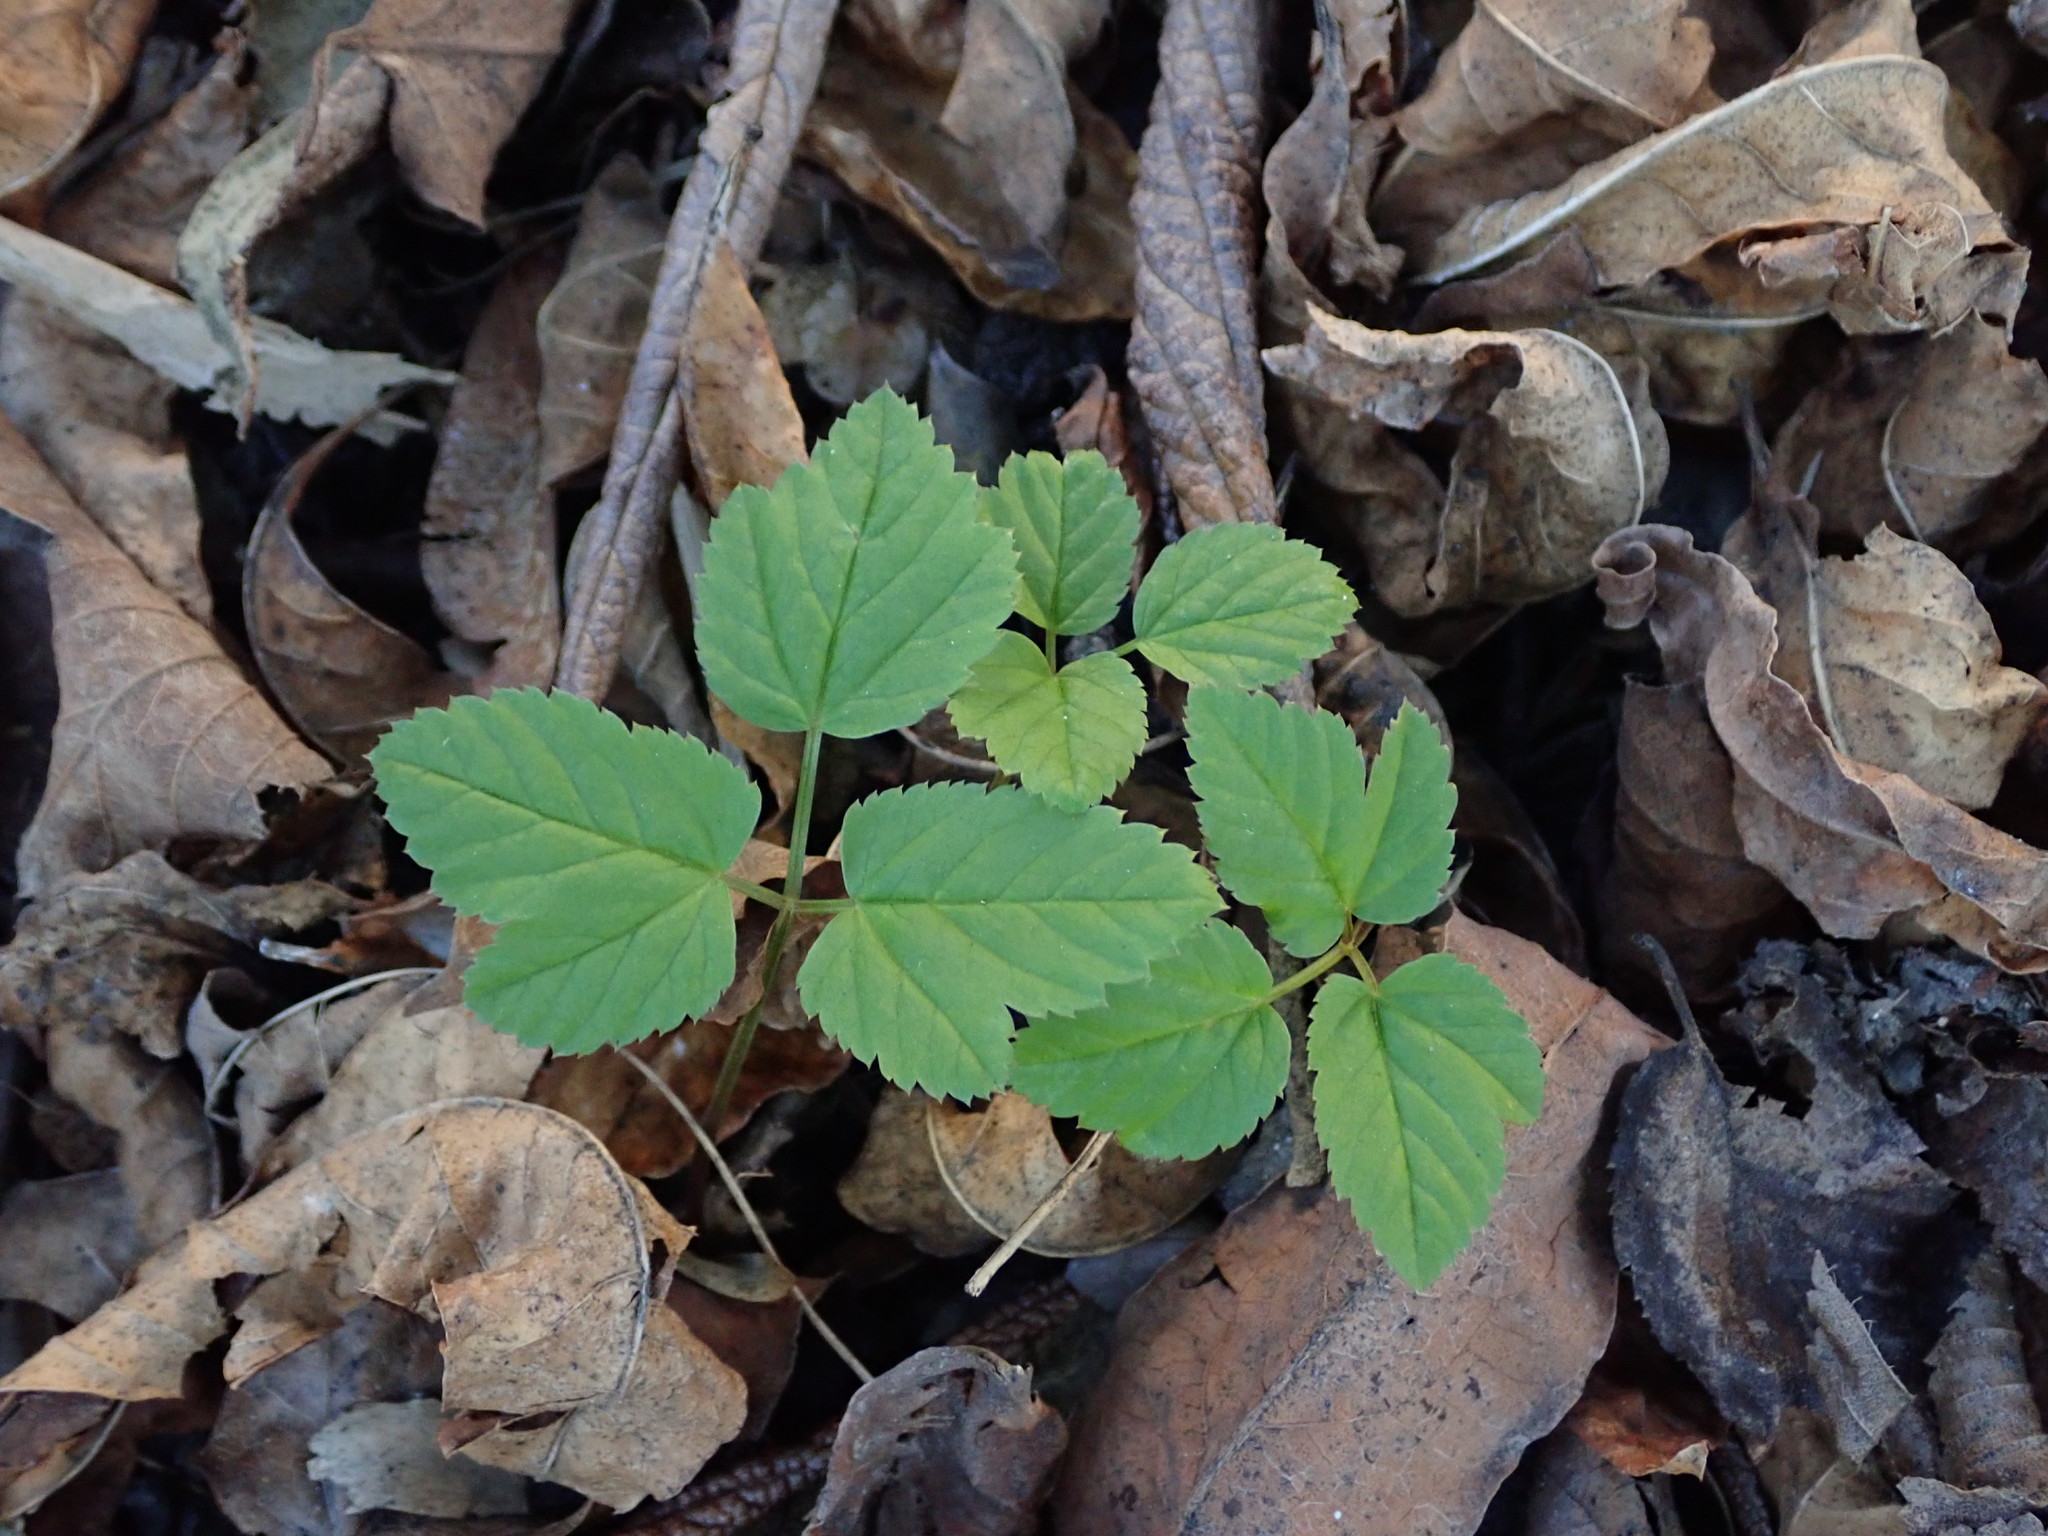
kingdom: Plantae
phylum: Tracheophyta
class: Magnoliopsida
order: Apiales
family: Apiaceae
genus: Aegopodium
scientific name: Aegopodium podagraria
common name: Ground-elder
